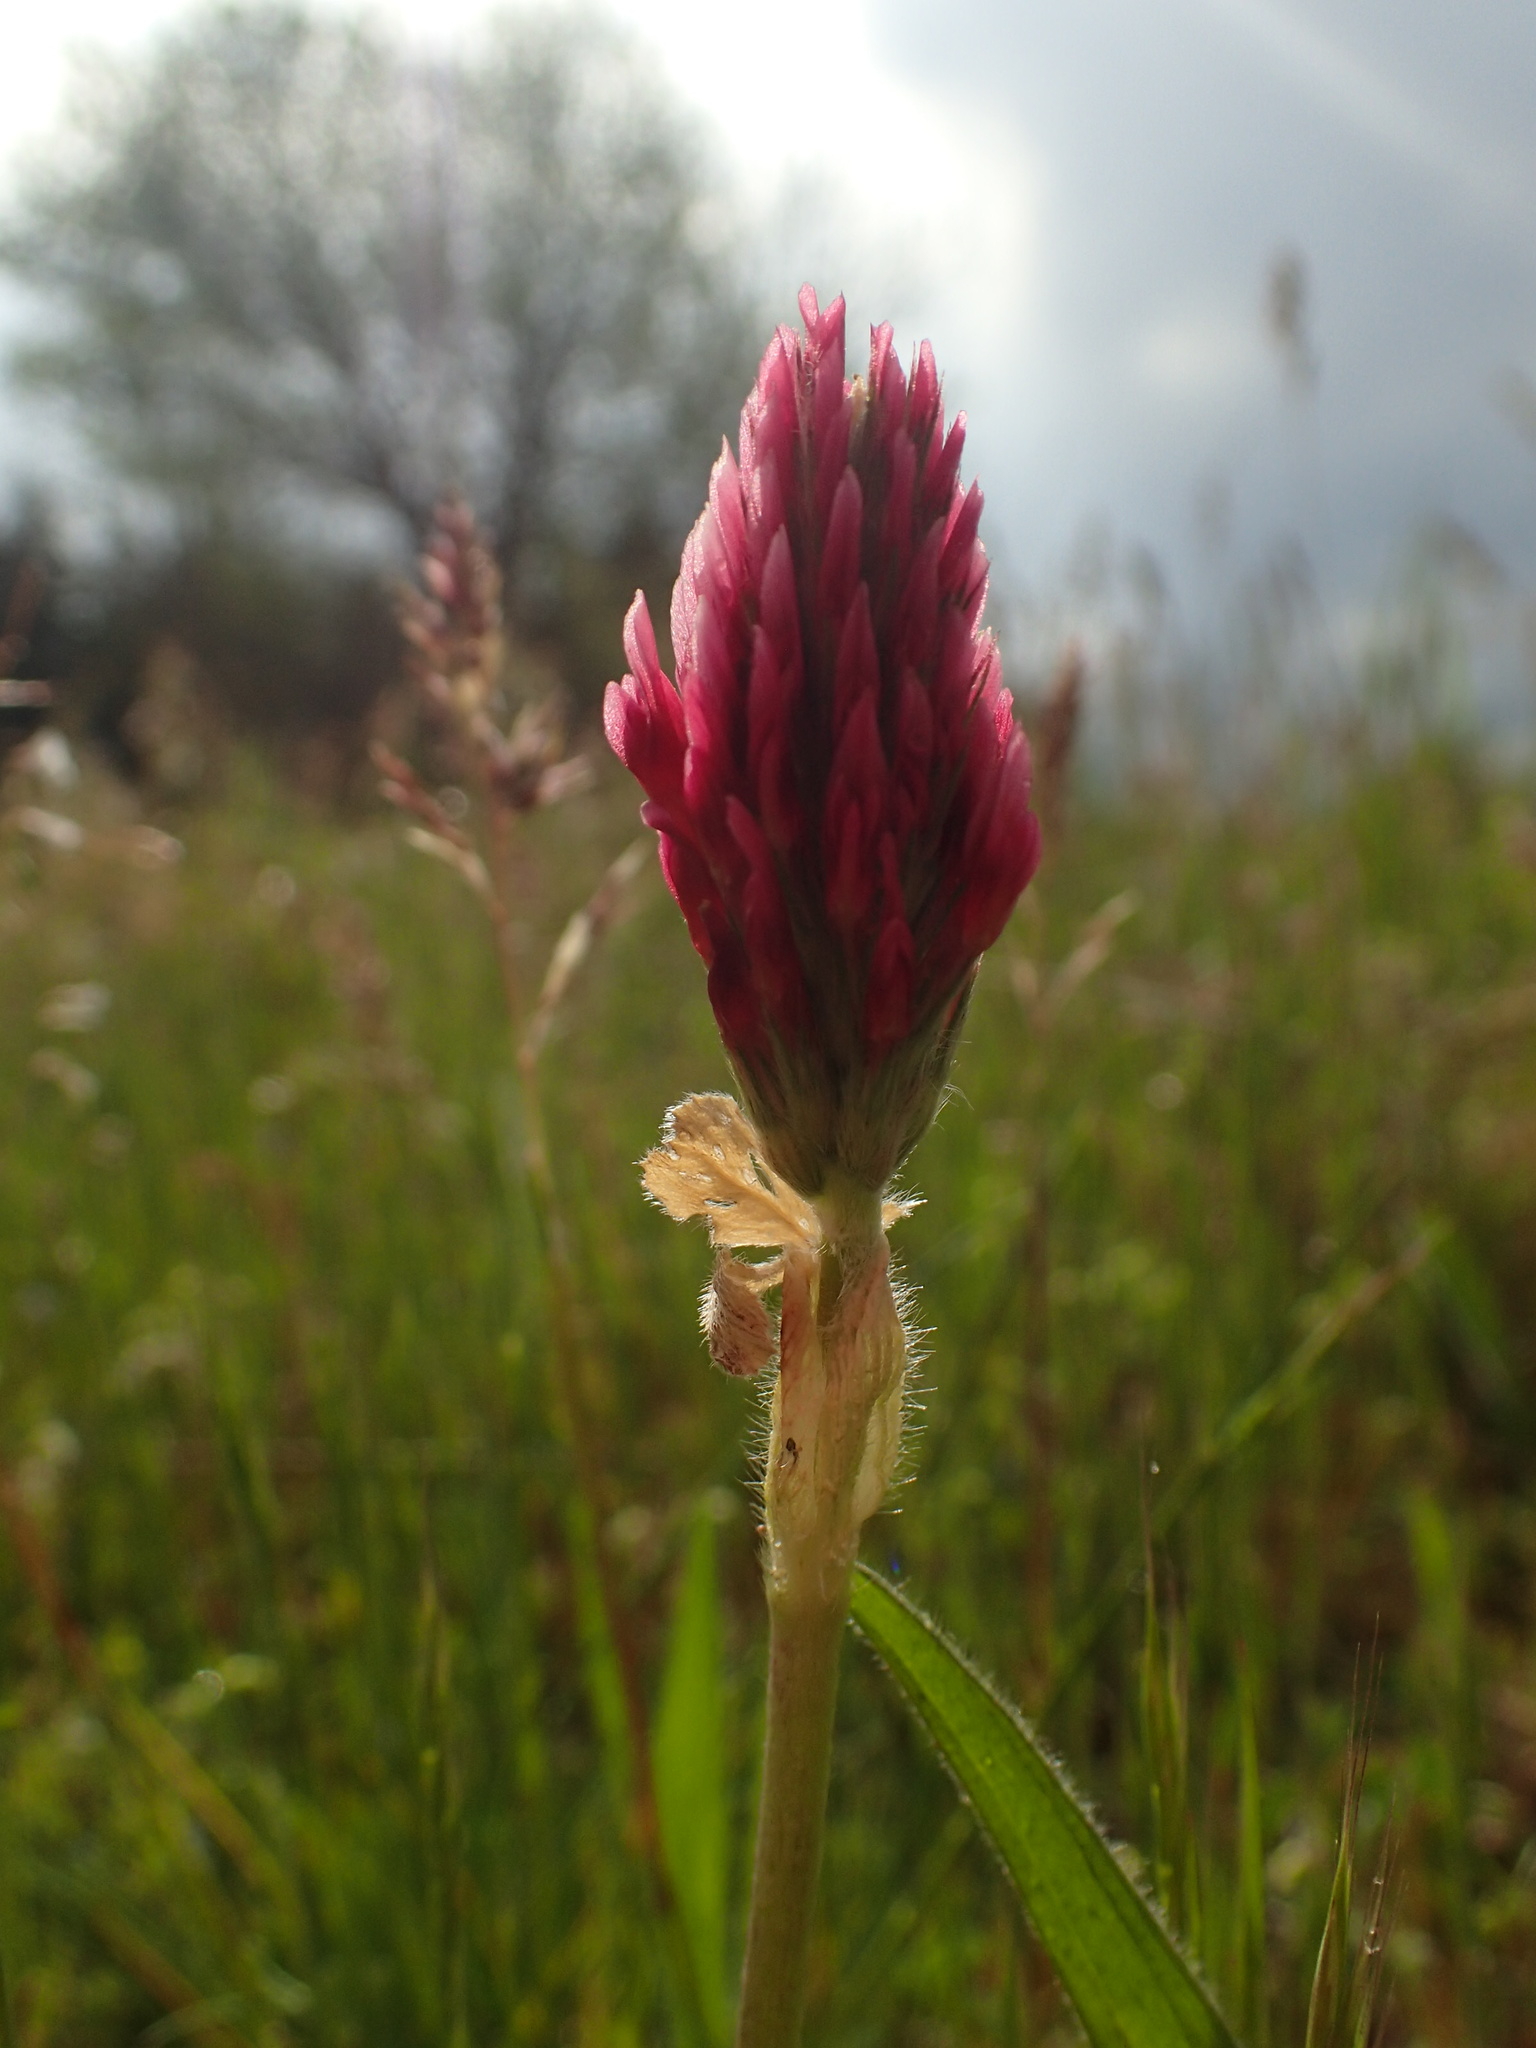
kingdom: Plantae
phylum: Tracheophyta
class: Magnoliopsida
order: Fabales
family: Fabaceae
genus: Trifolium
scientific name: Trifolium incarnatum
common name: Crimson clover
